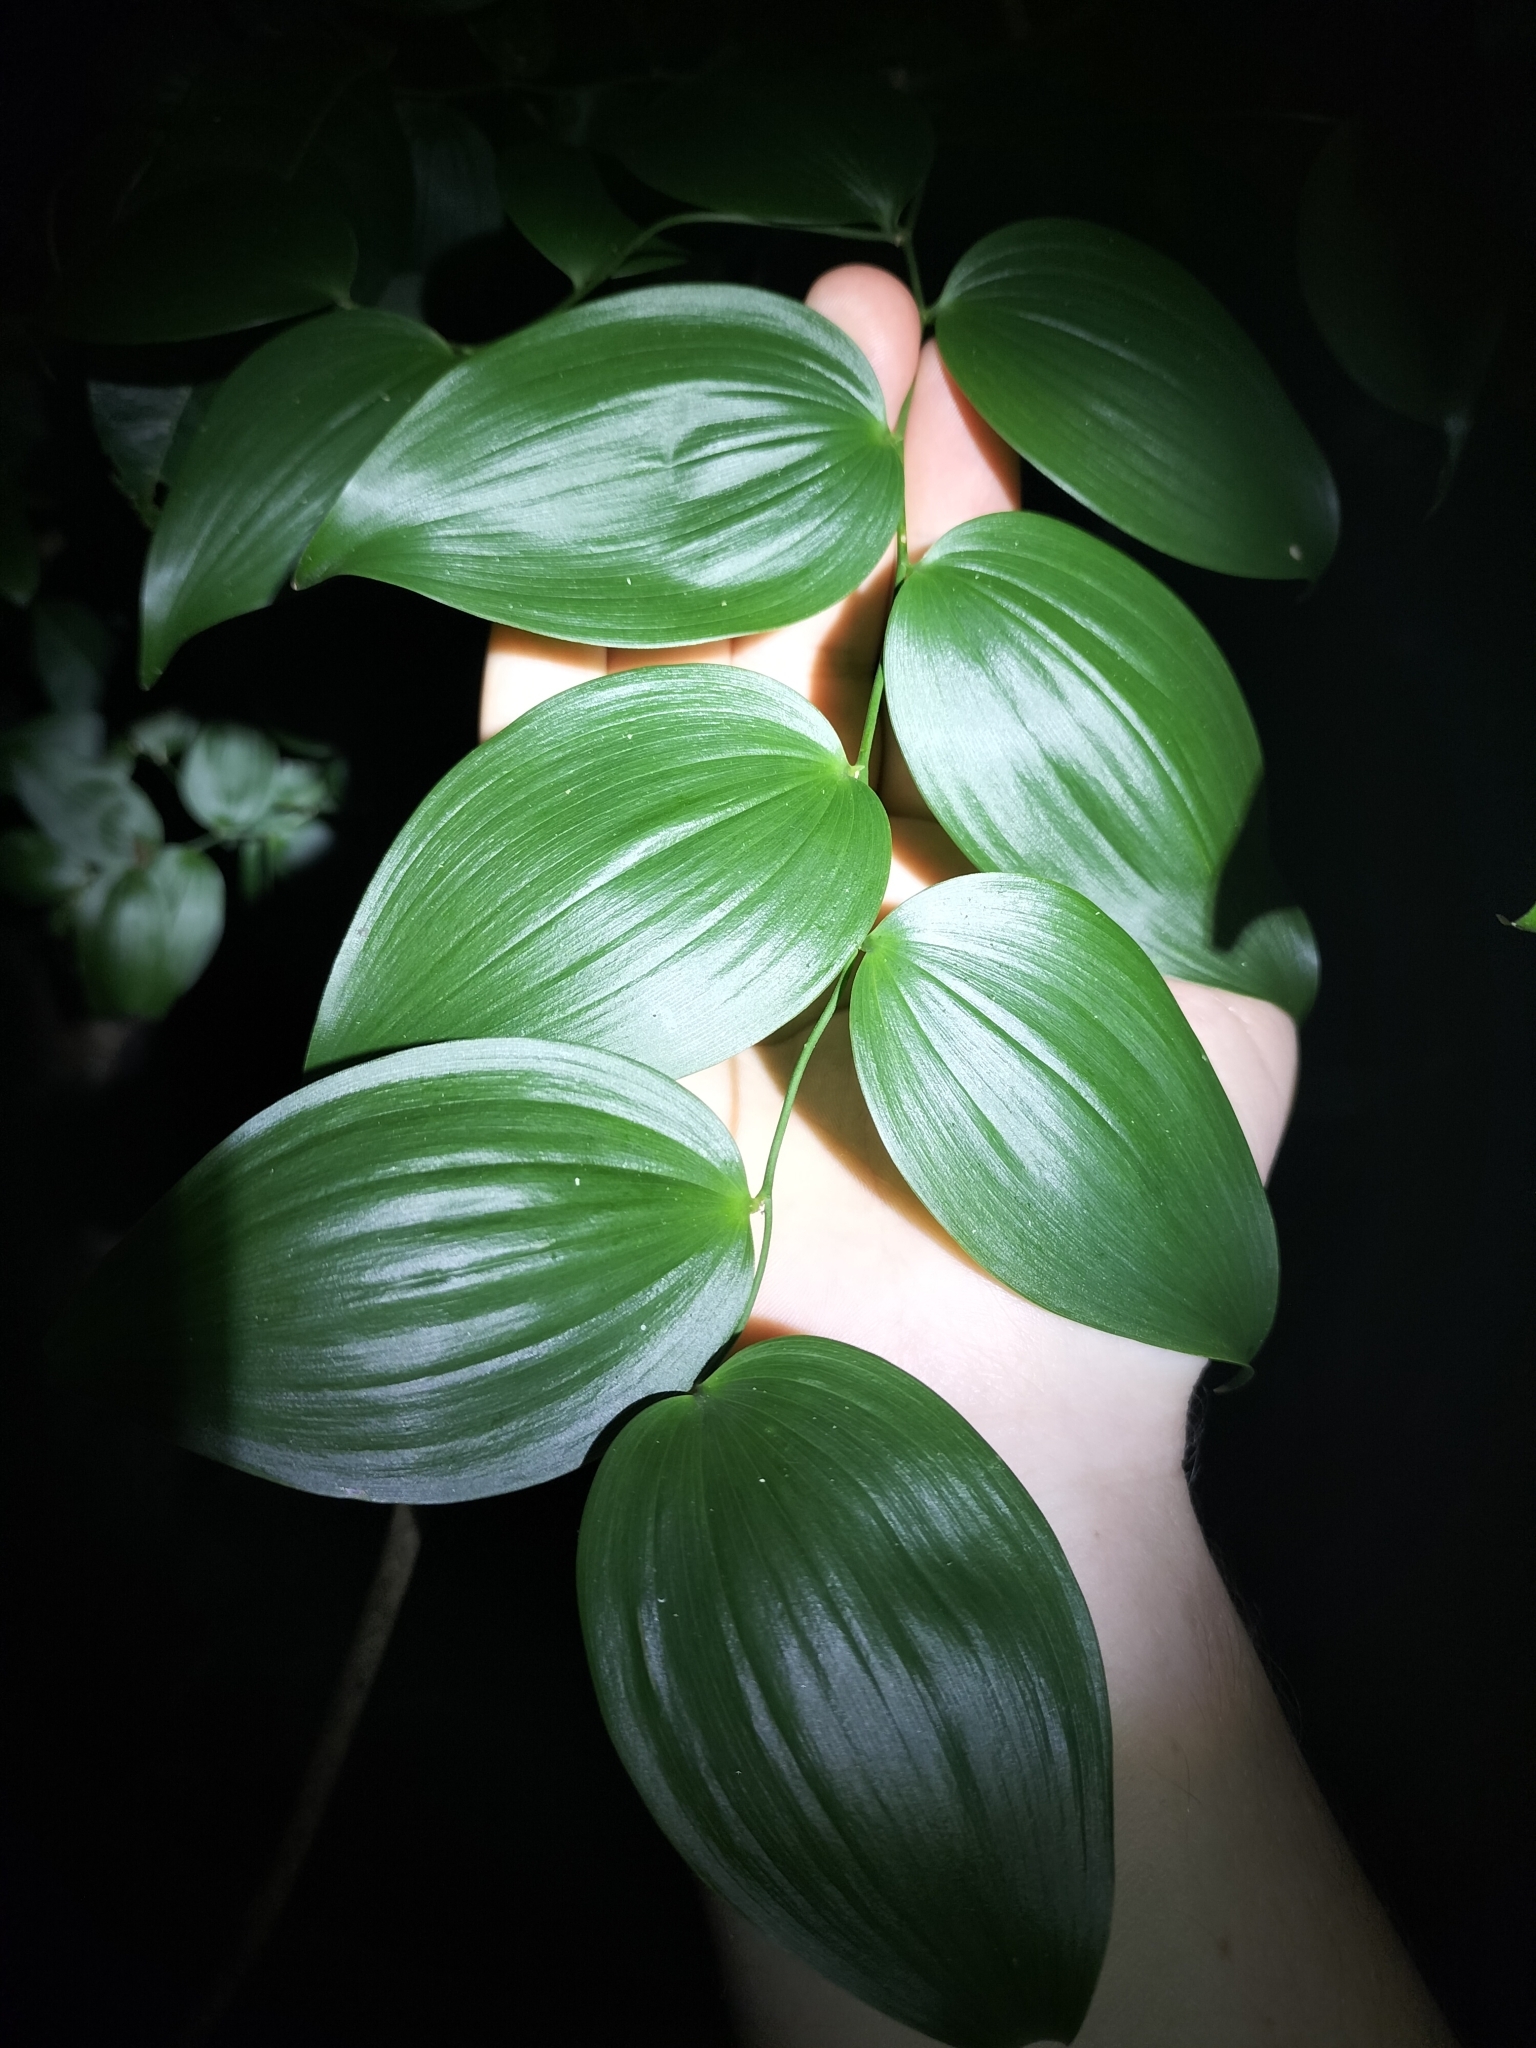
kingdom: Plantae
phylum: Tracheophyta
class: Liliopsida
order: Asparagales
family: Asparagaceae
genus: Eustrephus
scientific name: Eustrephus latifolius
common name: Orangevine
